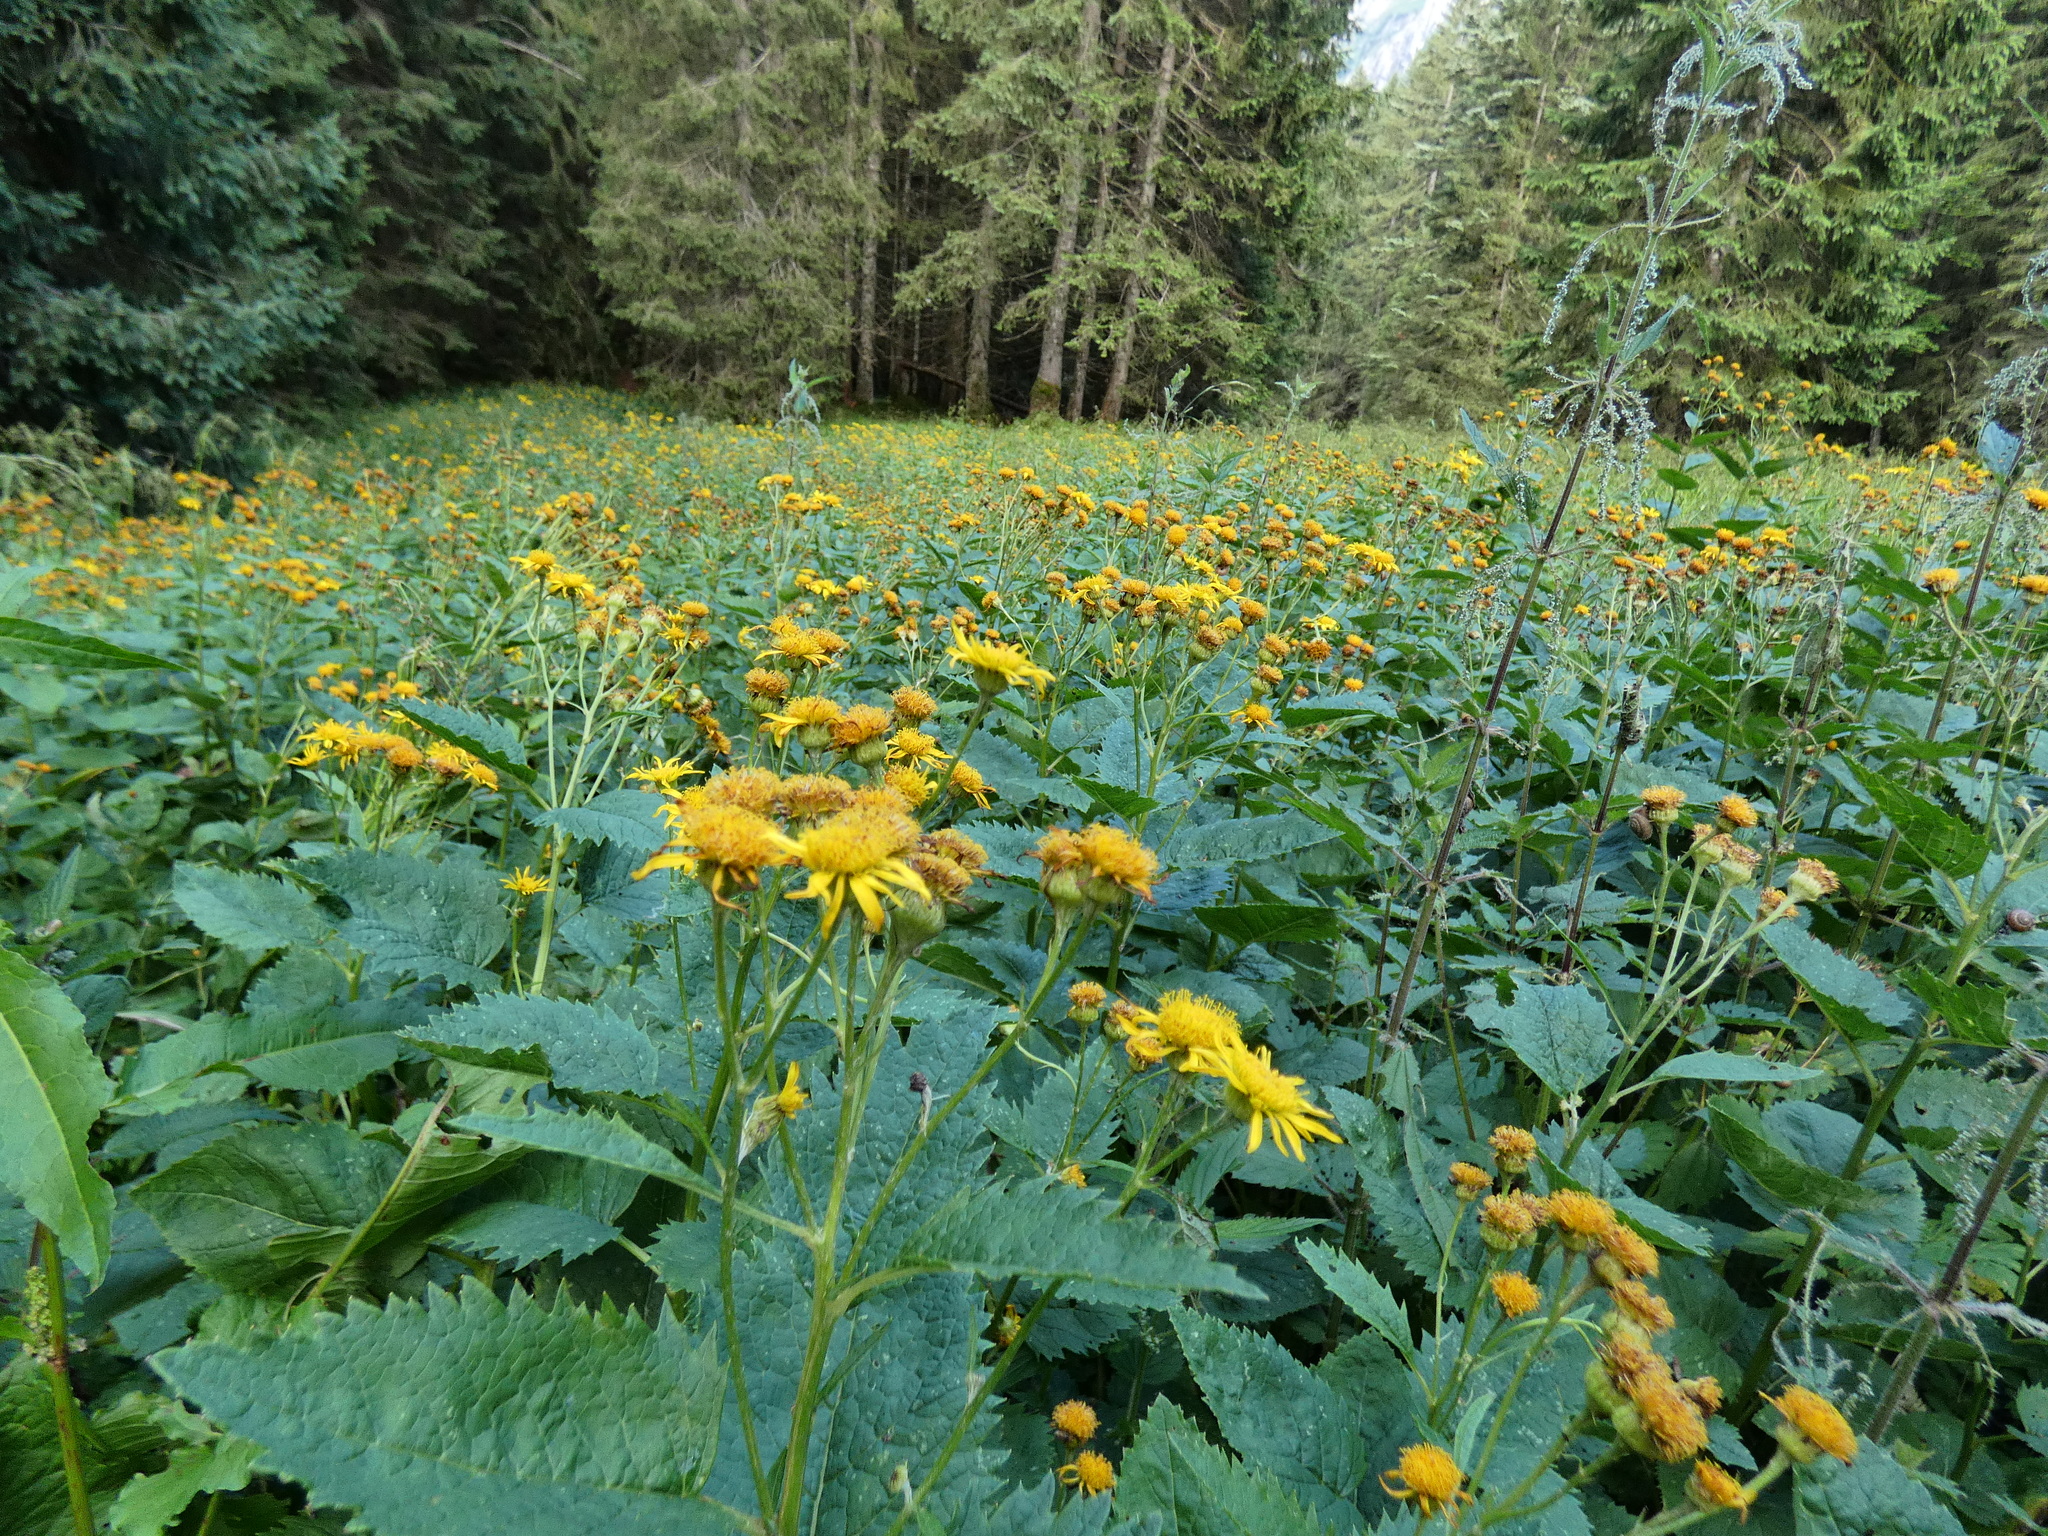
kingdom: Plantae
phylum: Tracheophyta
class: Magnoliopsida
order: Asterales
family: Asteraceae
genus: Jacobaea
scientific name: Jacobaea alpina
